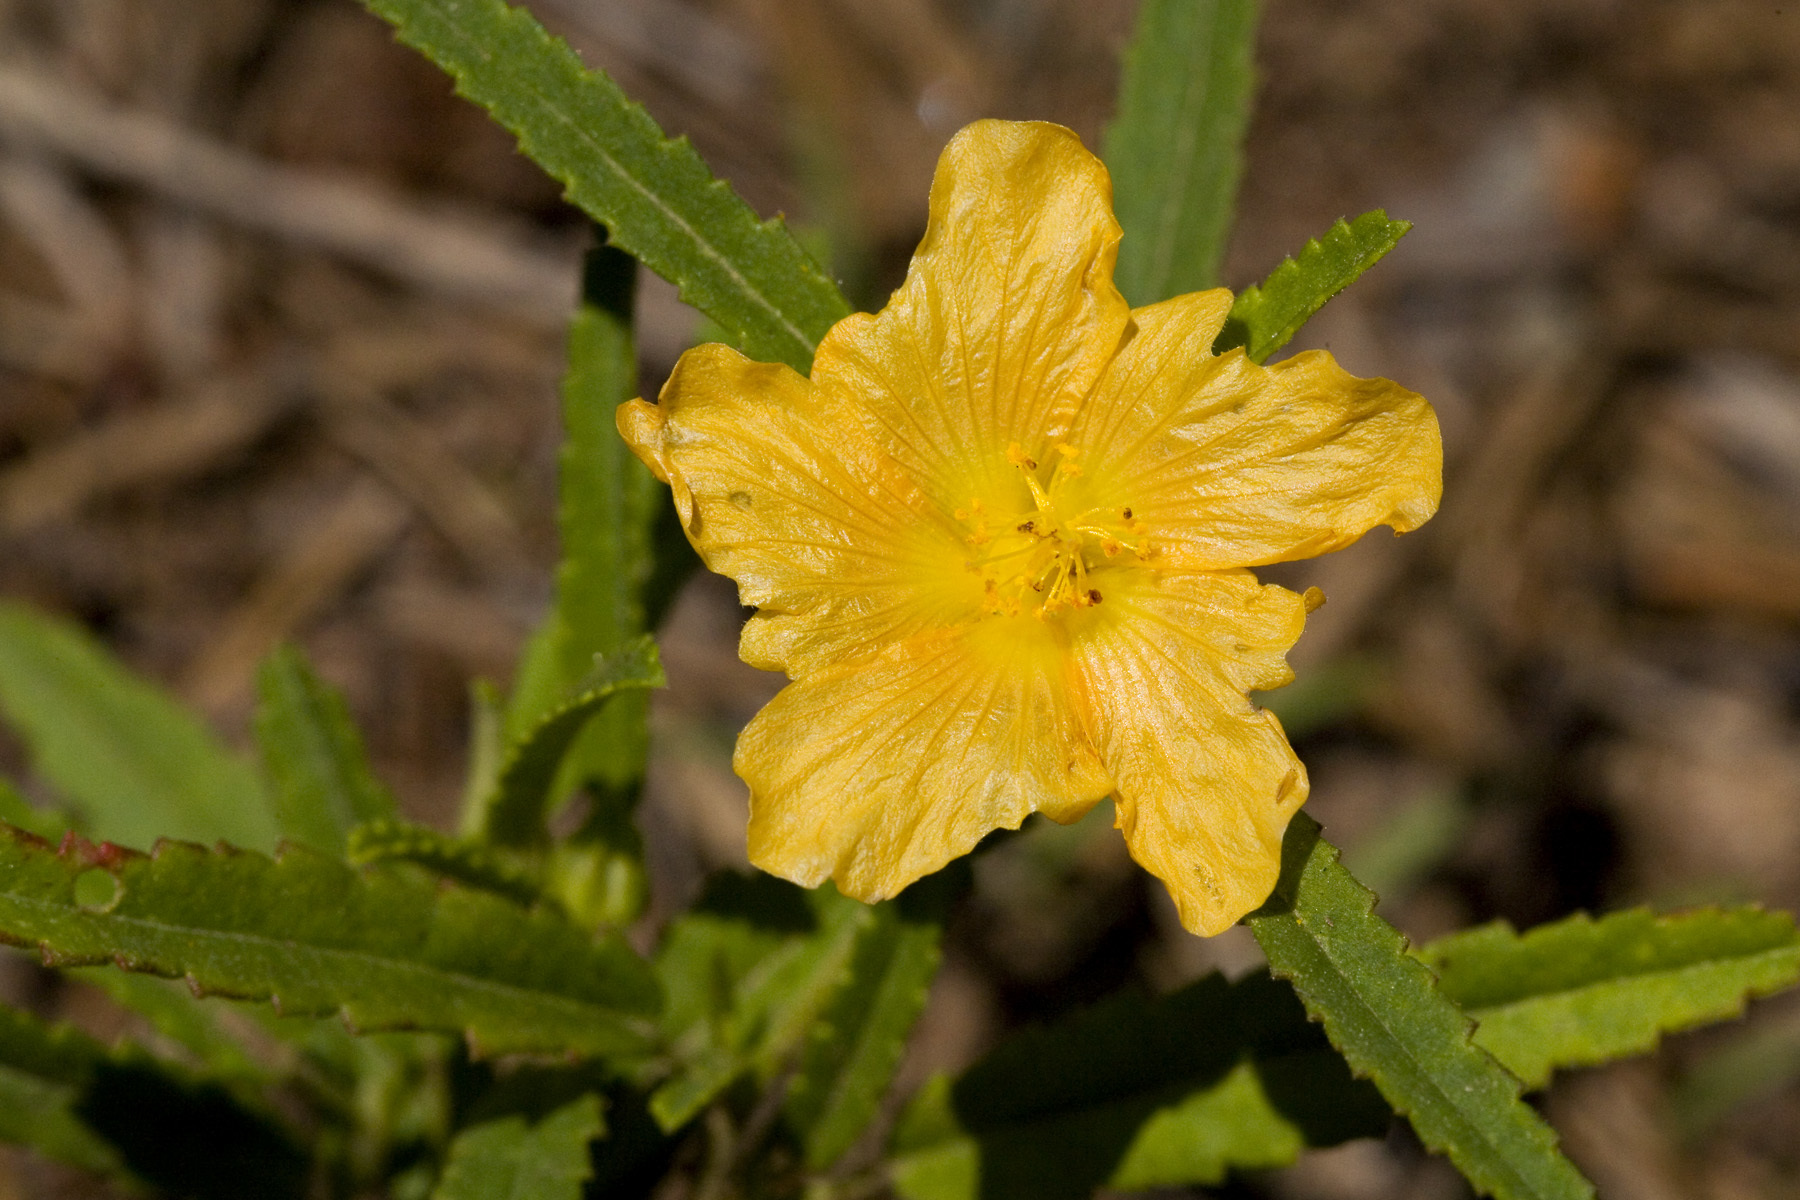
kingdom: Plantae
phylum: Tracheophyta
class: Magnoliopsida
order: Malvales
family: Malvaceae
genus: Sida
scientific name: Sida neomexicana
